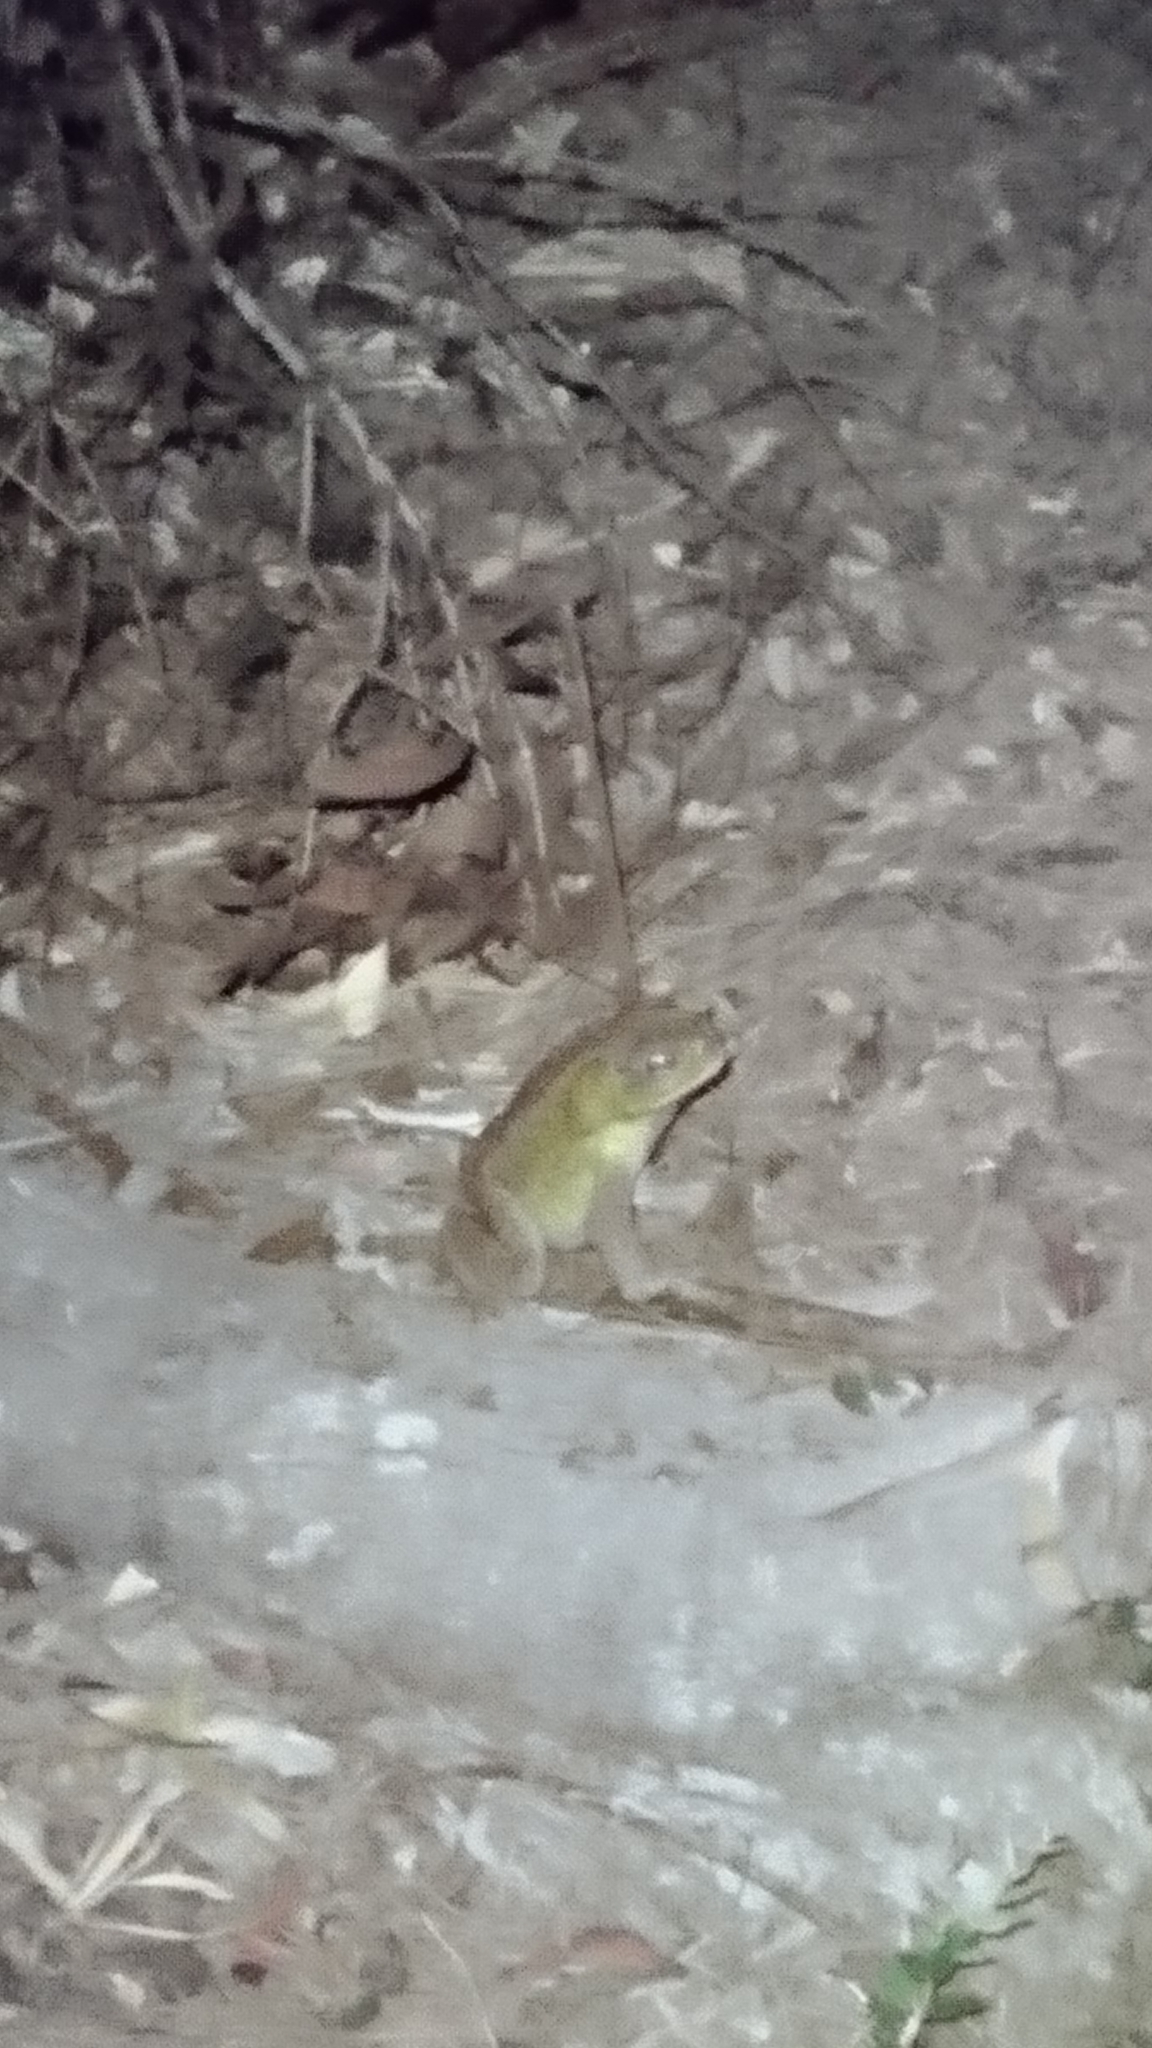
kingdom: Animalia
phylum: Chordata
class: Amphibia
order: Anura
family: Bufonidae
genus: Rhinella
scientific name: Rhinella marina
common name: Cane toad
